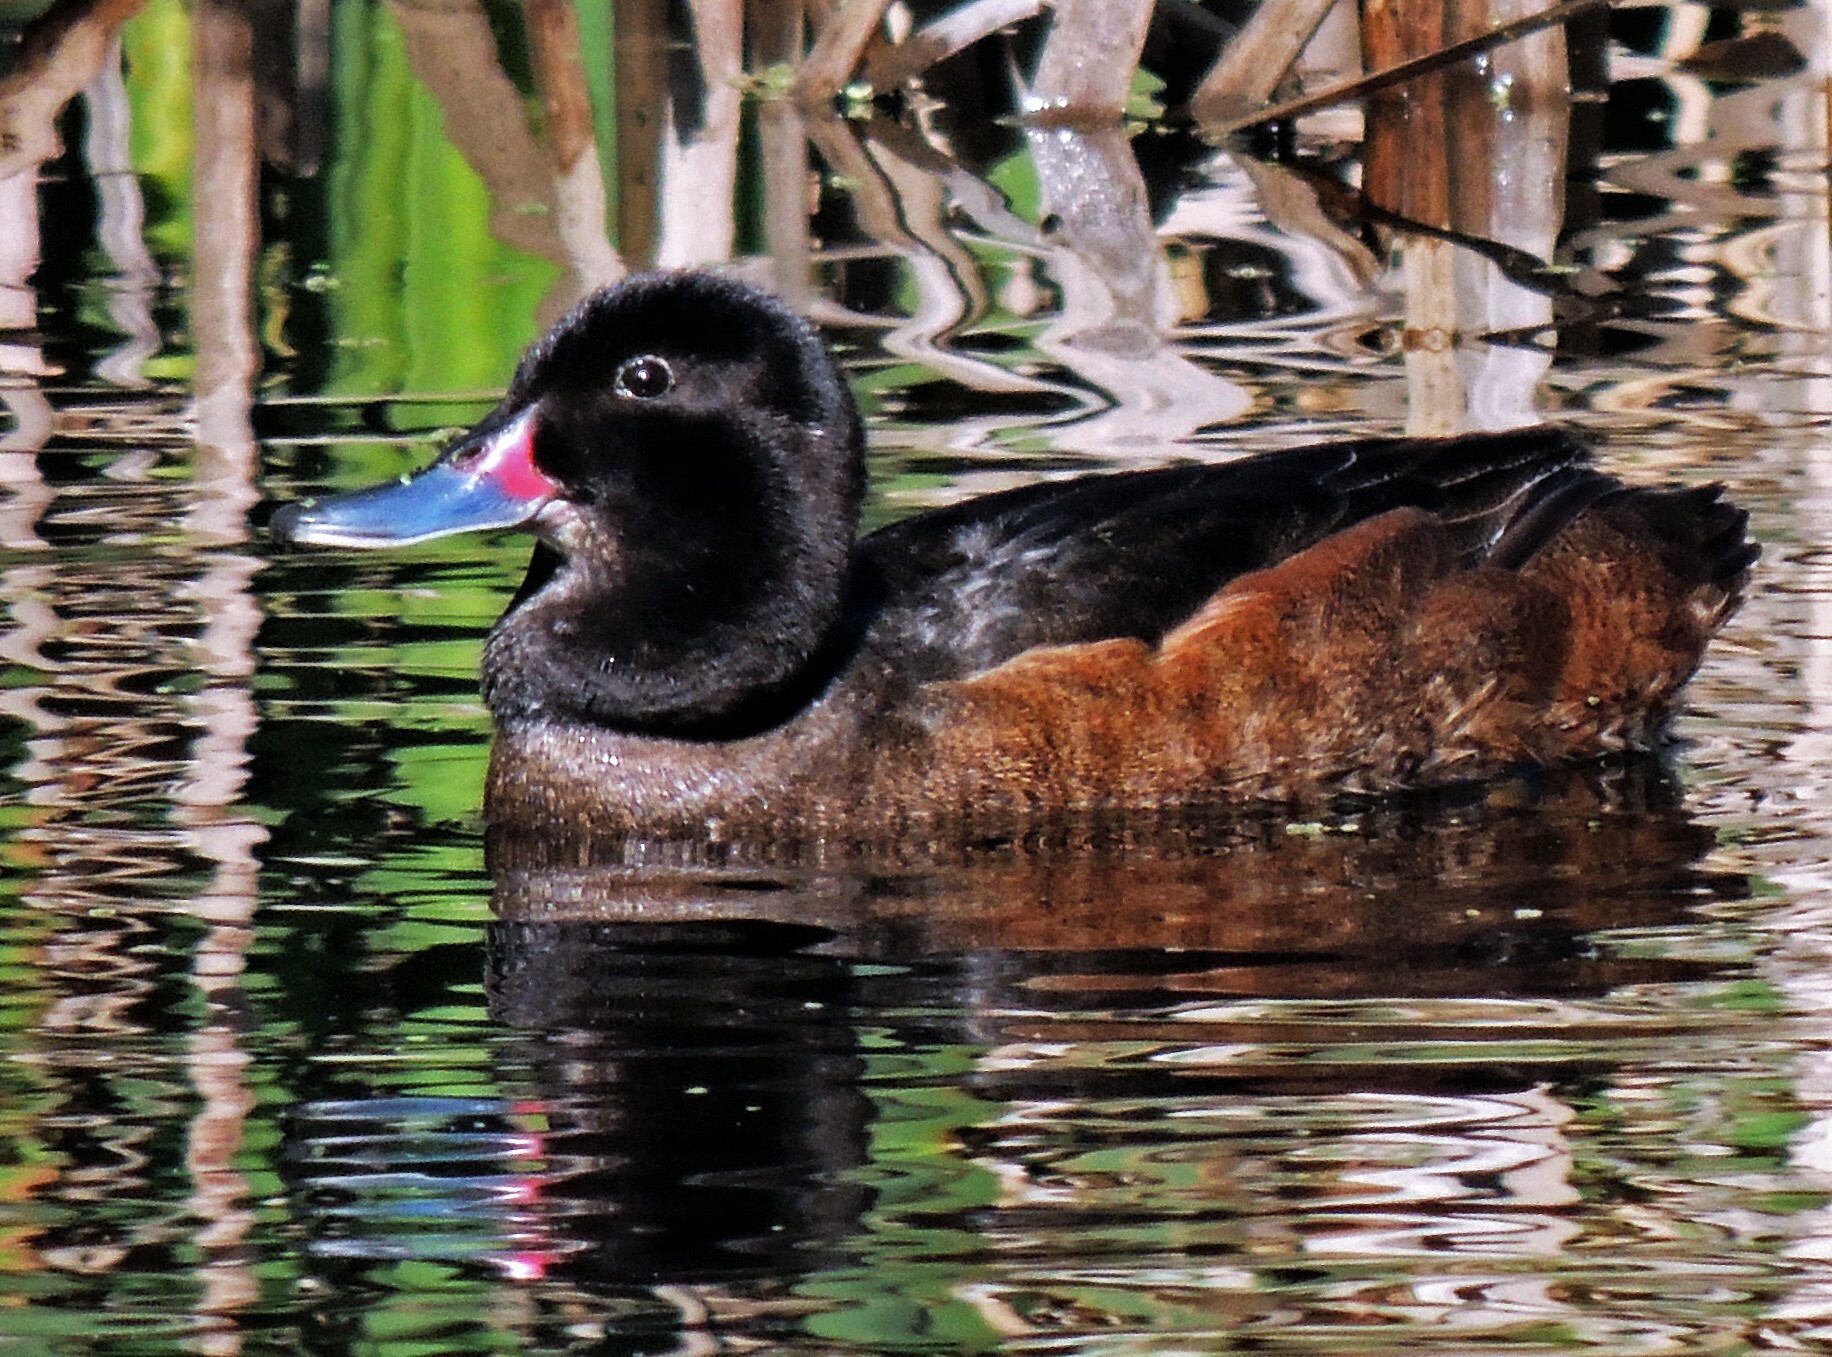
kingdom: Animalia
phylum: Chordata
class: Aves
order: Anseriformes
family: Anatidae
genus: Heteronetta
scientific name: Heteronetta atricapilla
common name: Black-headed duck
